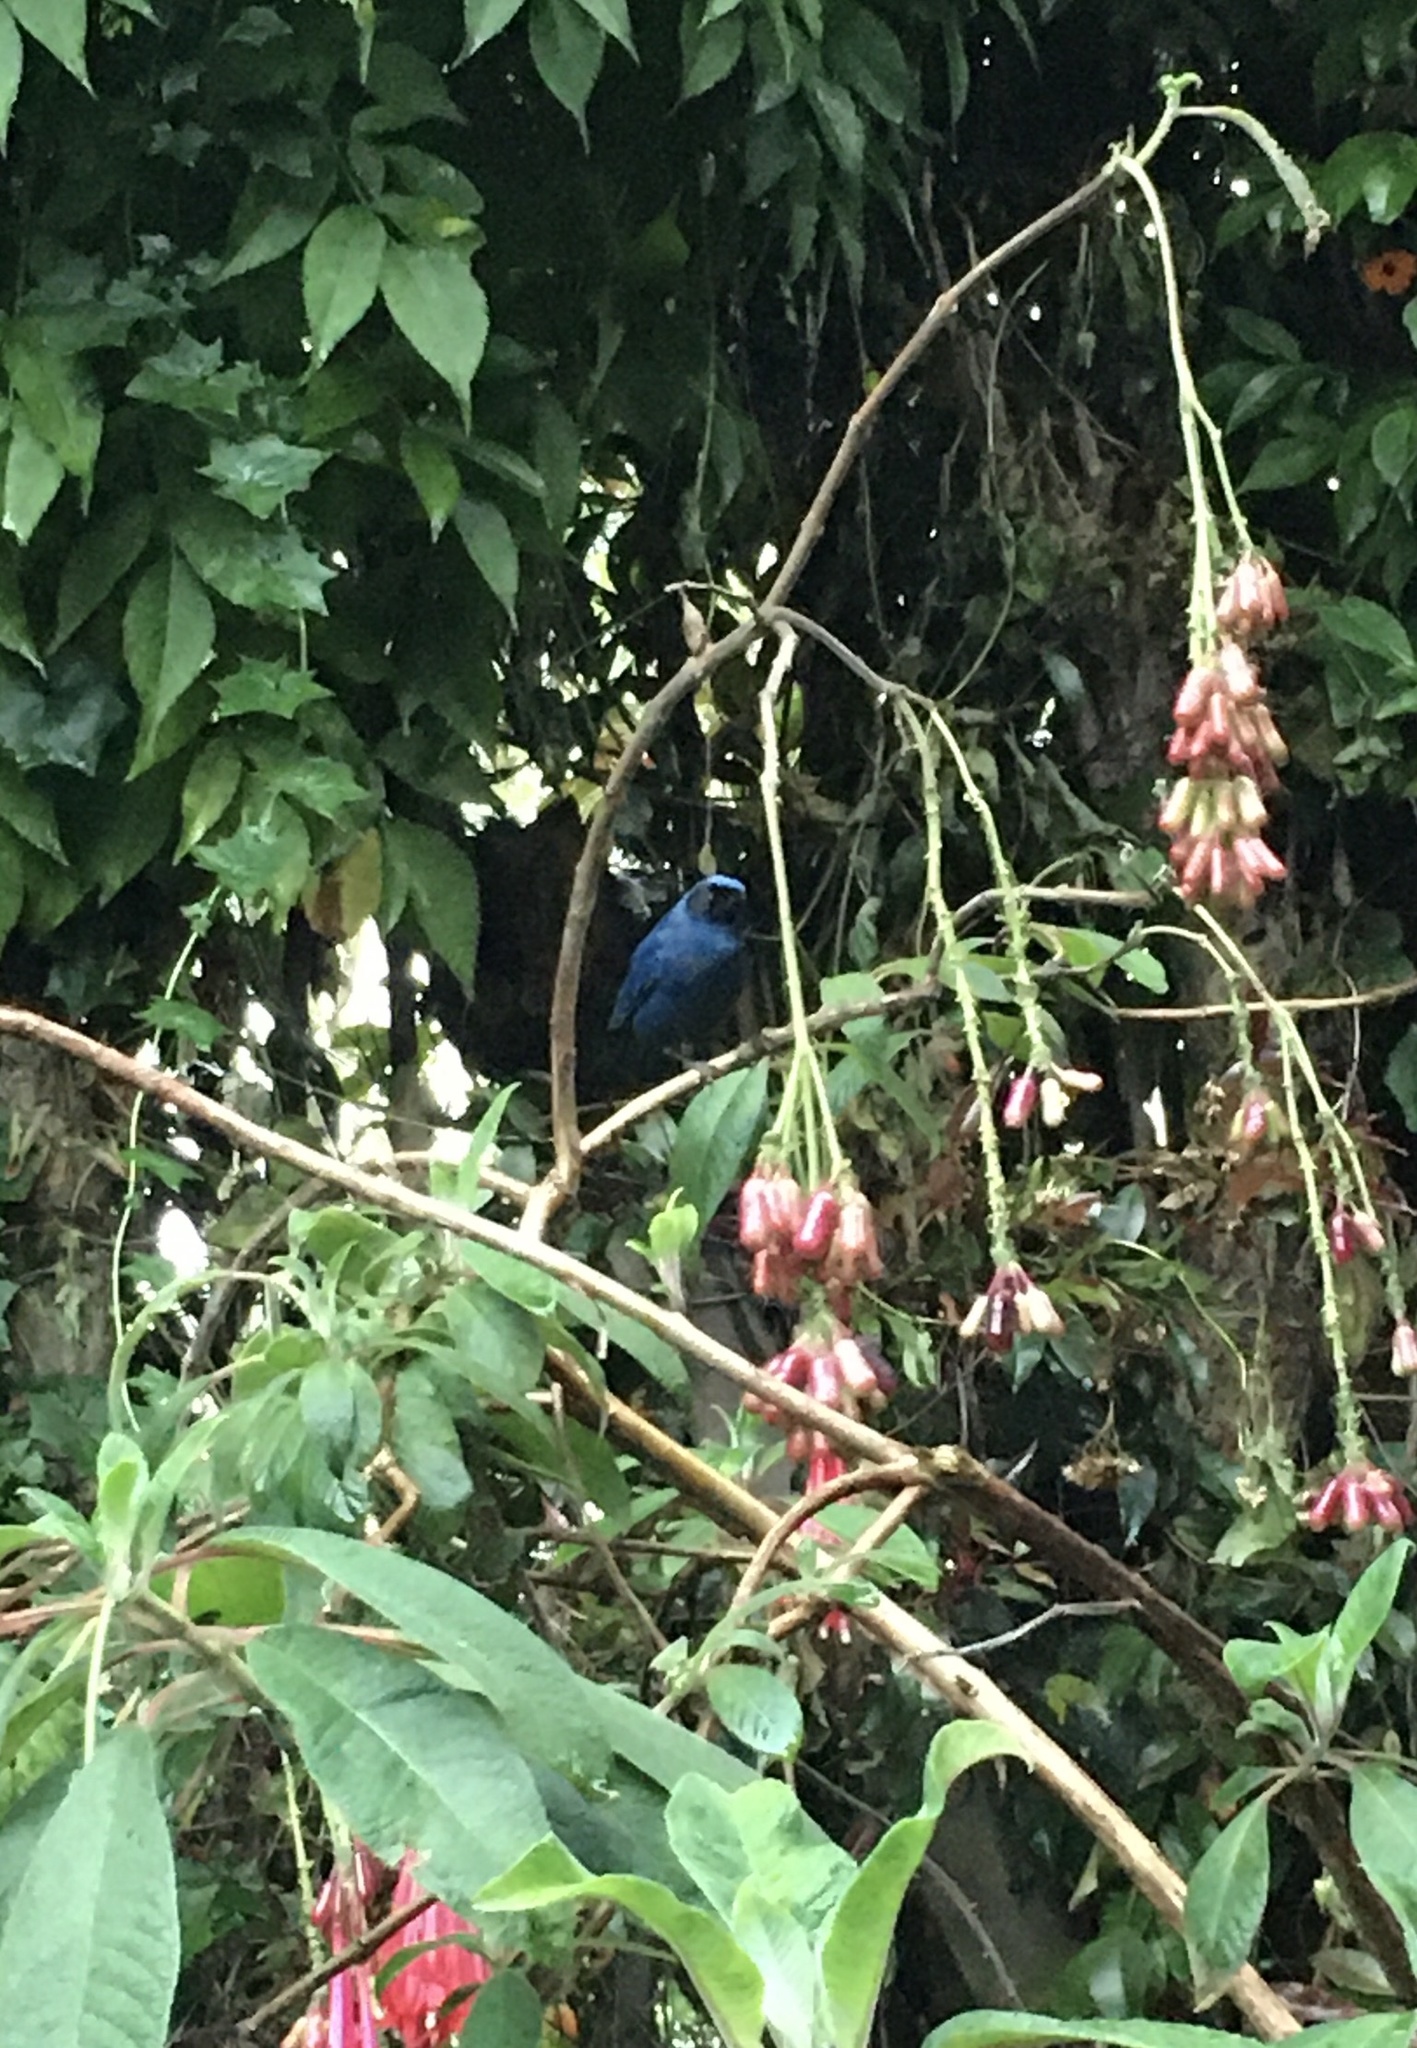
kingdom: Animalia
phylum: Chordata
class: Aves
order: Passeriformes
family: Thraupidae
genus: Diglossa
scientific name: Diglossa cyanea
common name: Masked flowerpiercer
